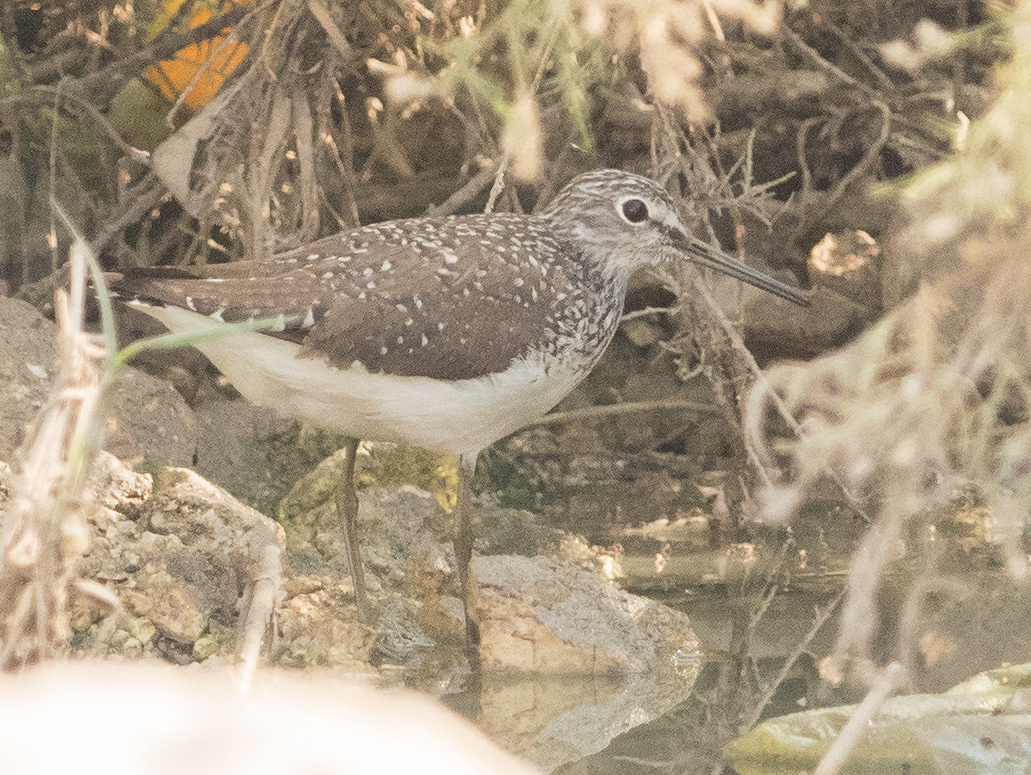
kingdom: Animalia
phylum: Chordata
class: Aves
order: Charadriiformes
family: Scolopacidae
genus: Tringa
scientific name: Tringa ochropus
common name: Green sandpiper
